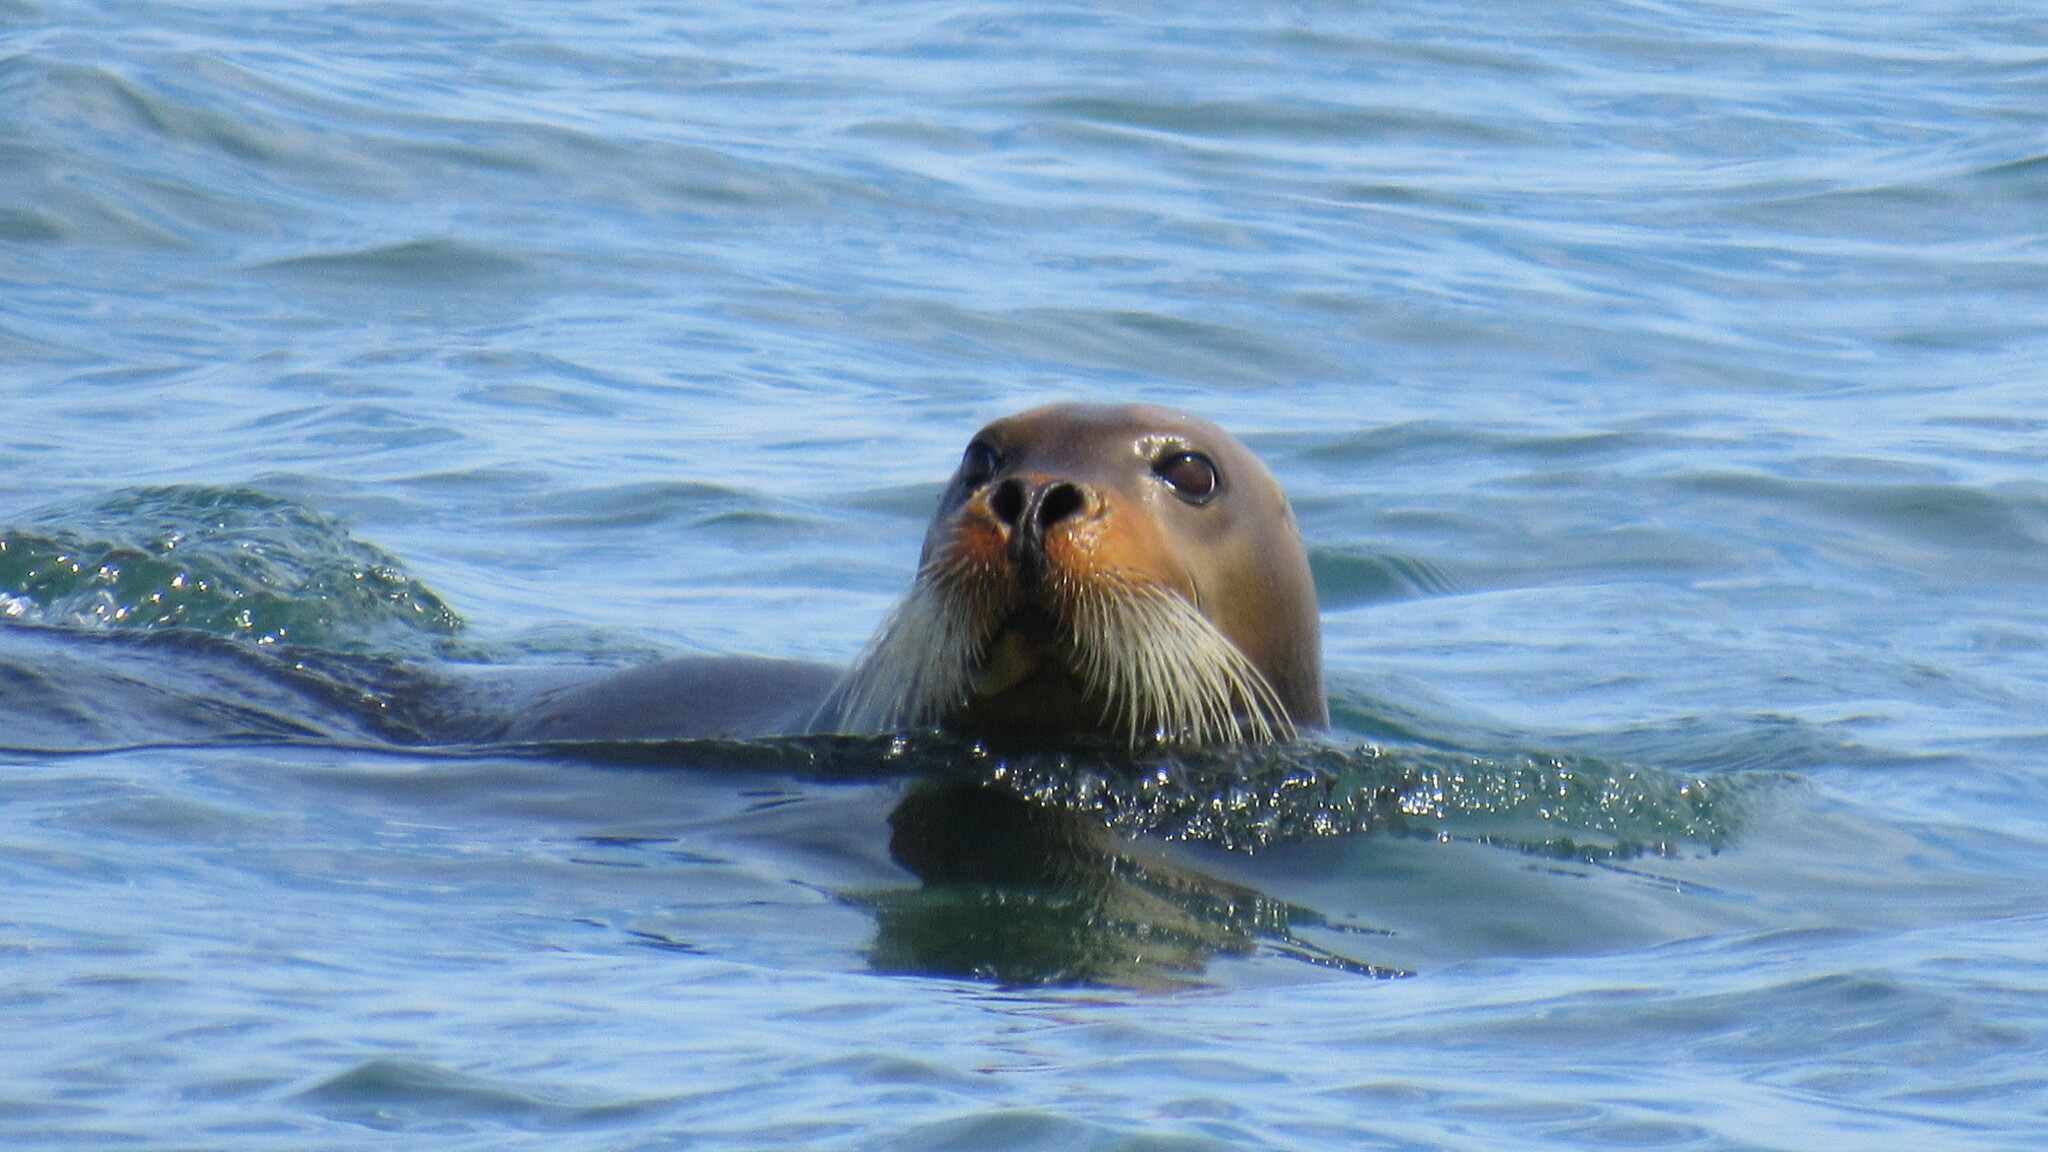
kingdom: Animalia
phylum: Chordata
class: Mammalia
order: Carnivora
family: Phocidae
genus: Erignathus
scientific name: Erignathus barbatus
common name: Bearded seal
